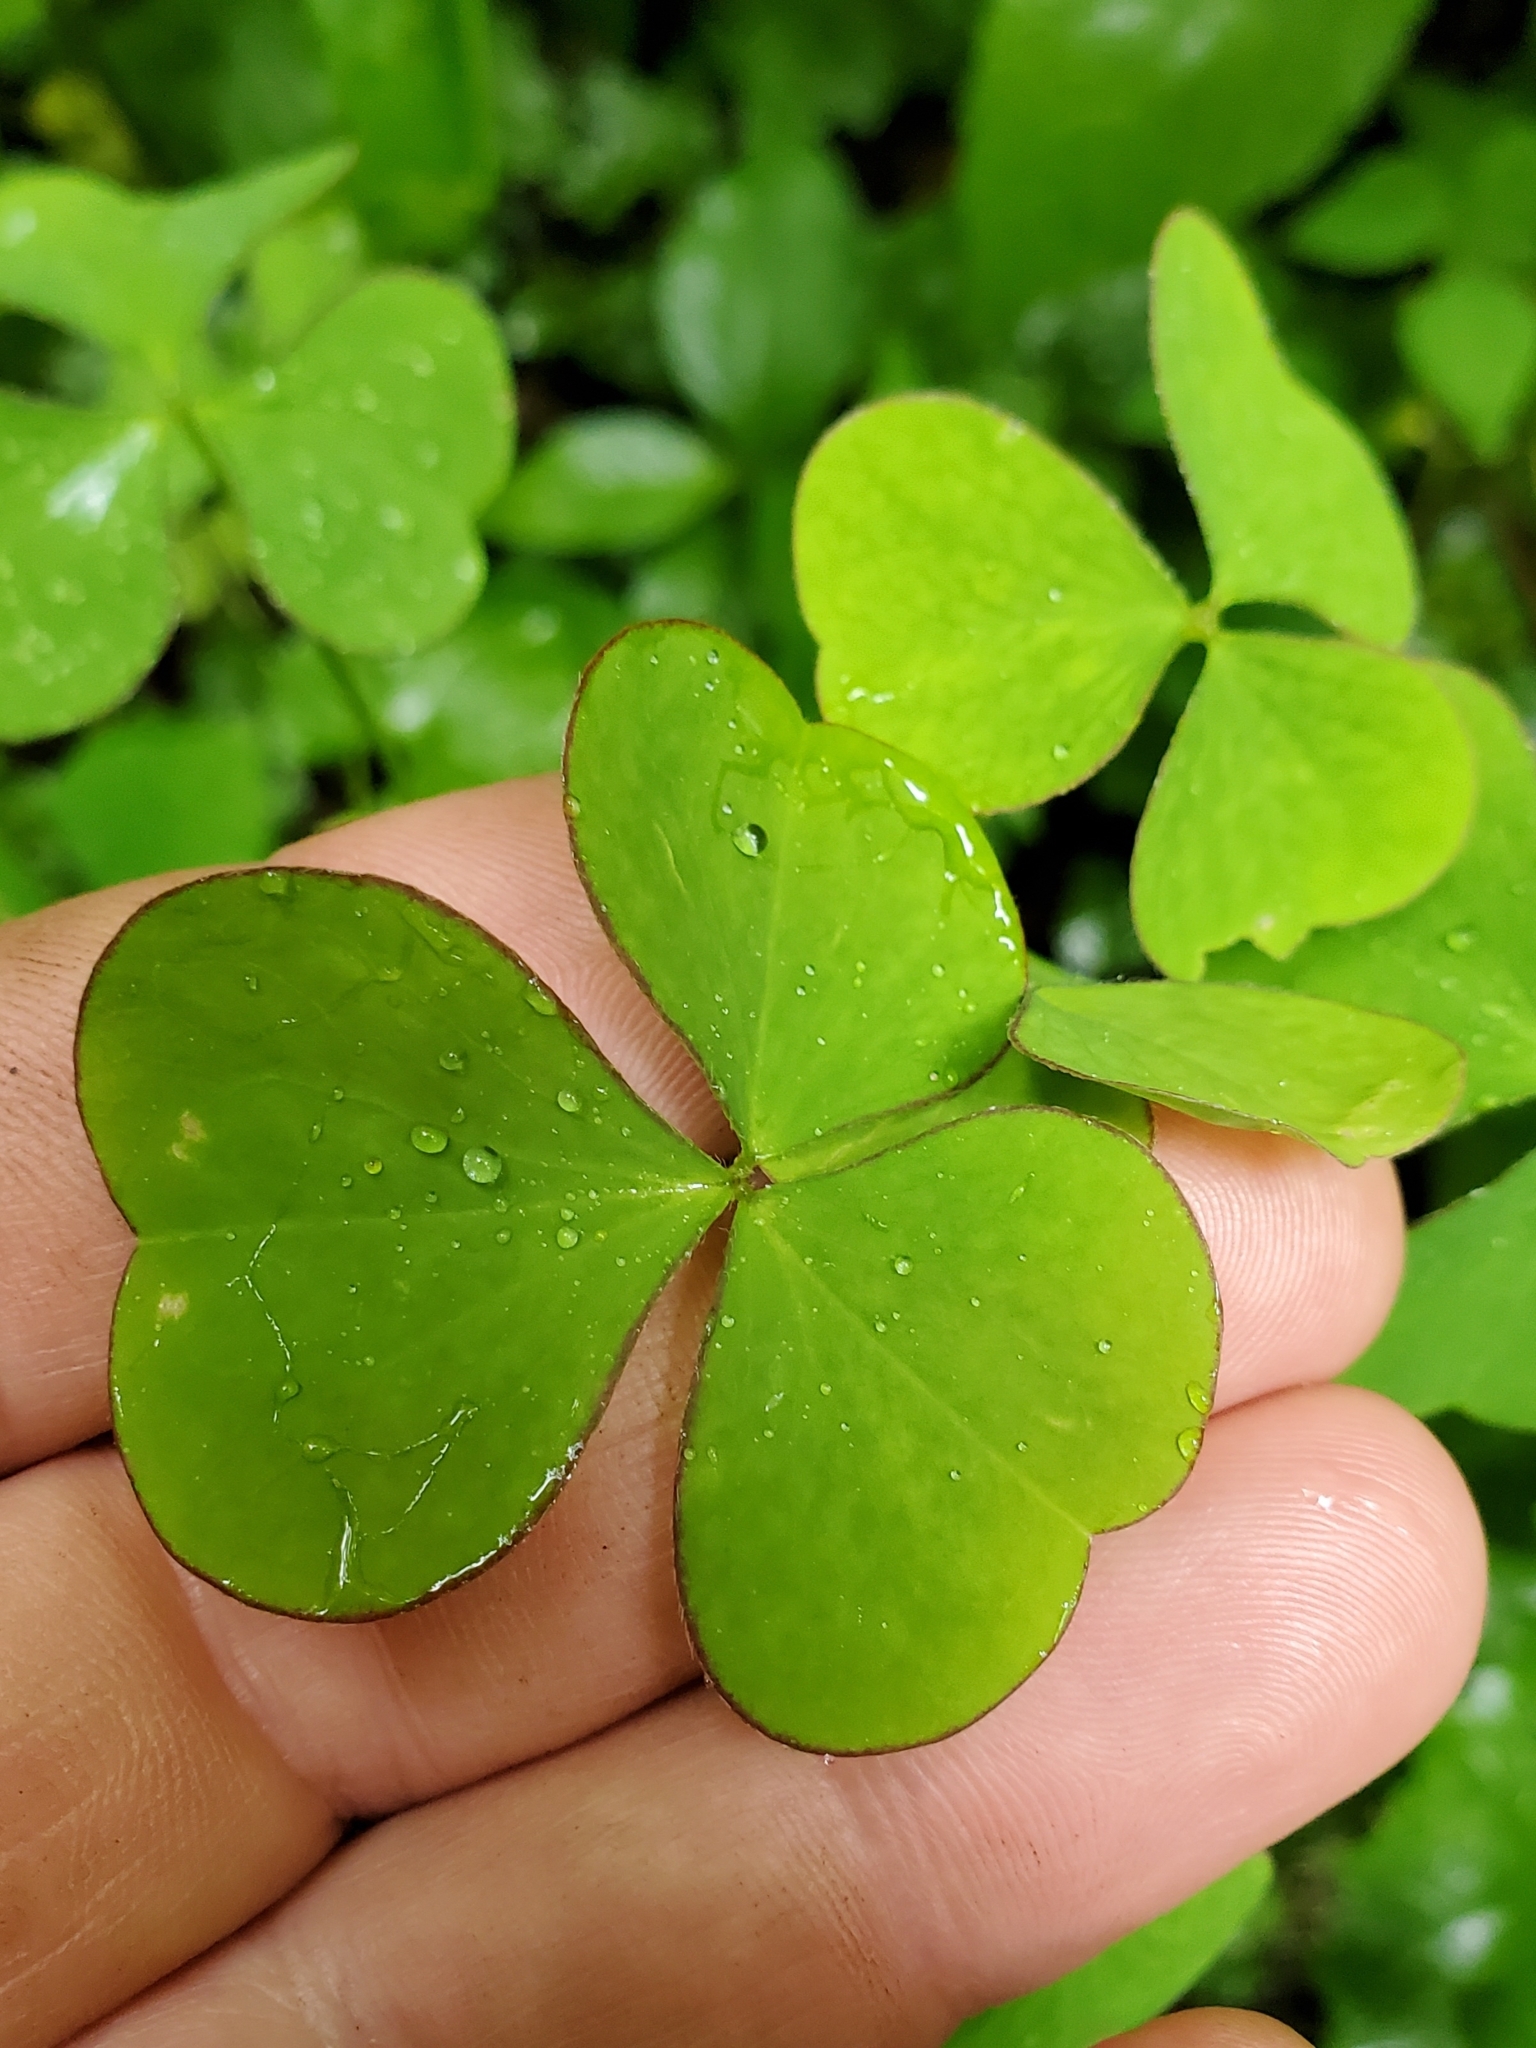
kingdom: Plantae
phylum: Tracheophyta
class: Magnoliopsida
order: Oxalidales
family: Oxalidaceae
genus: Oxalis
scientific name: Oxalis grandis
